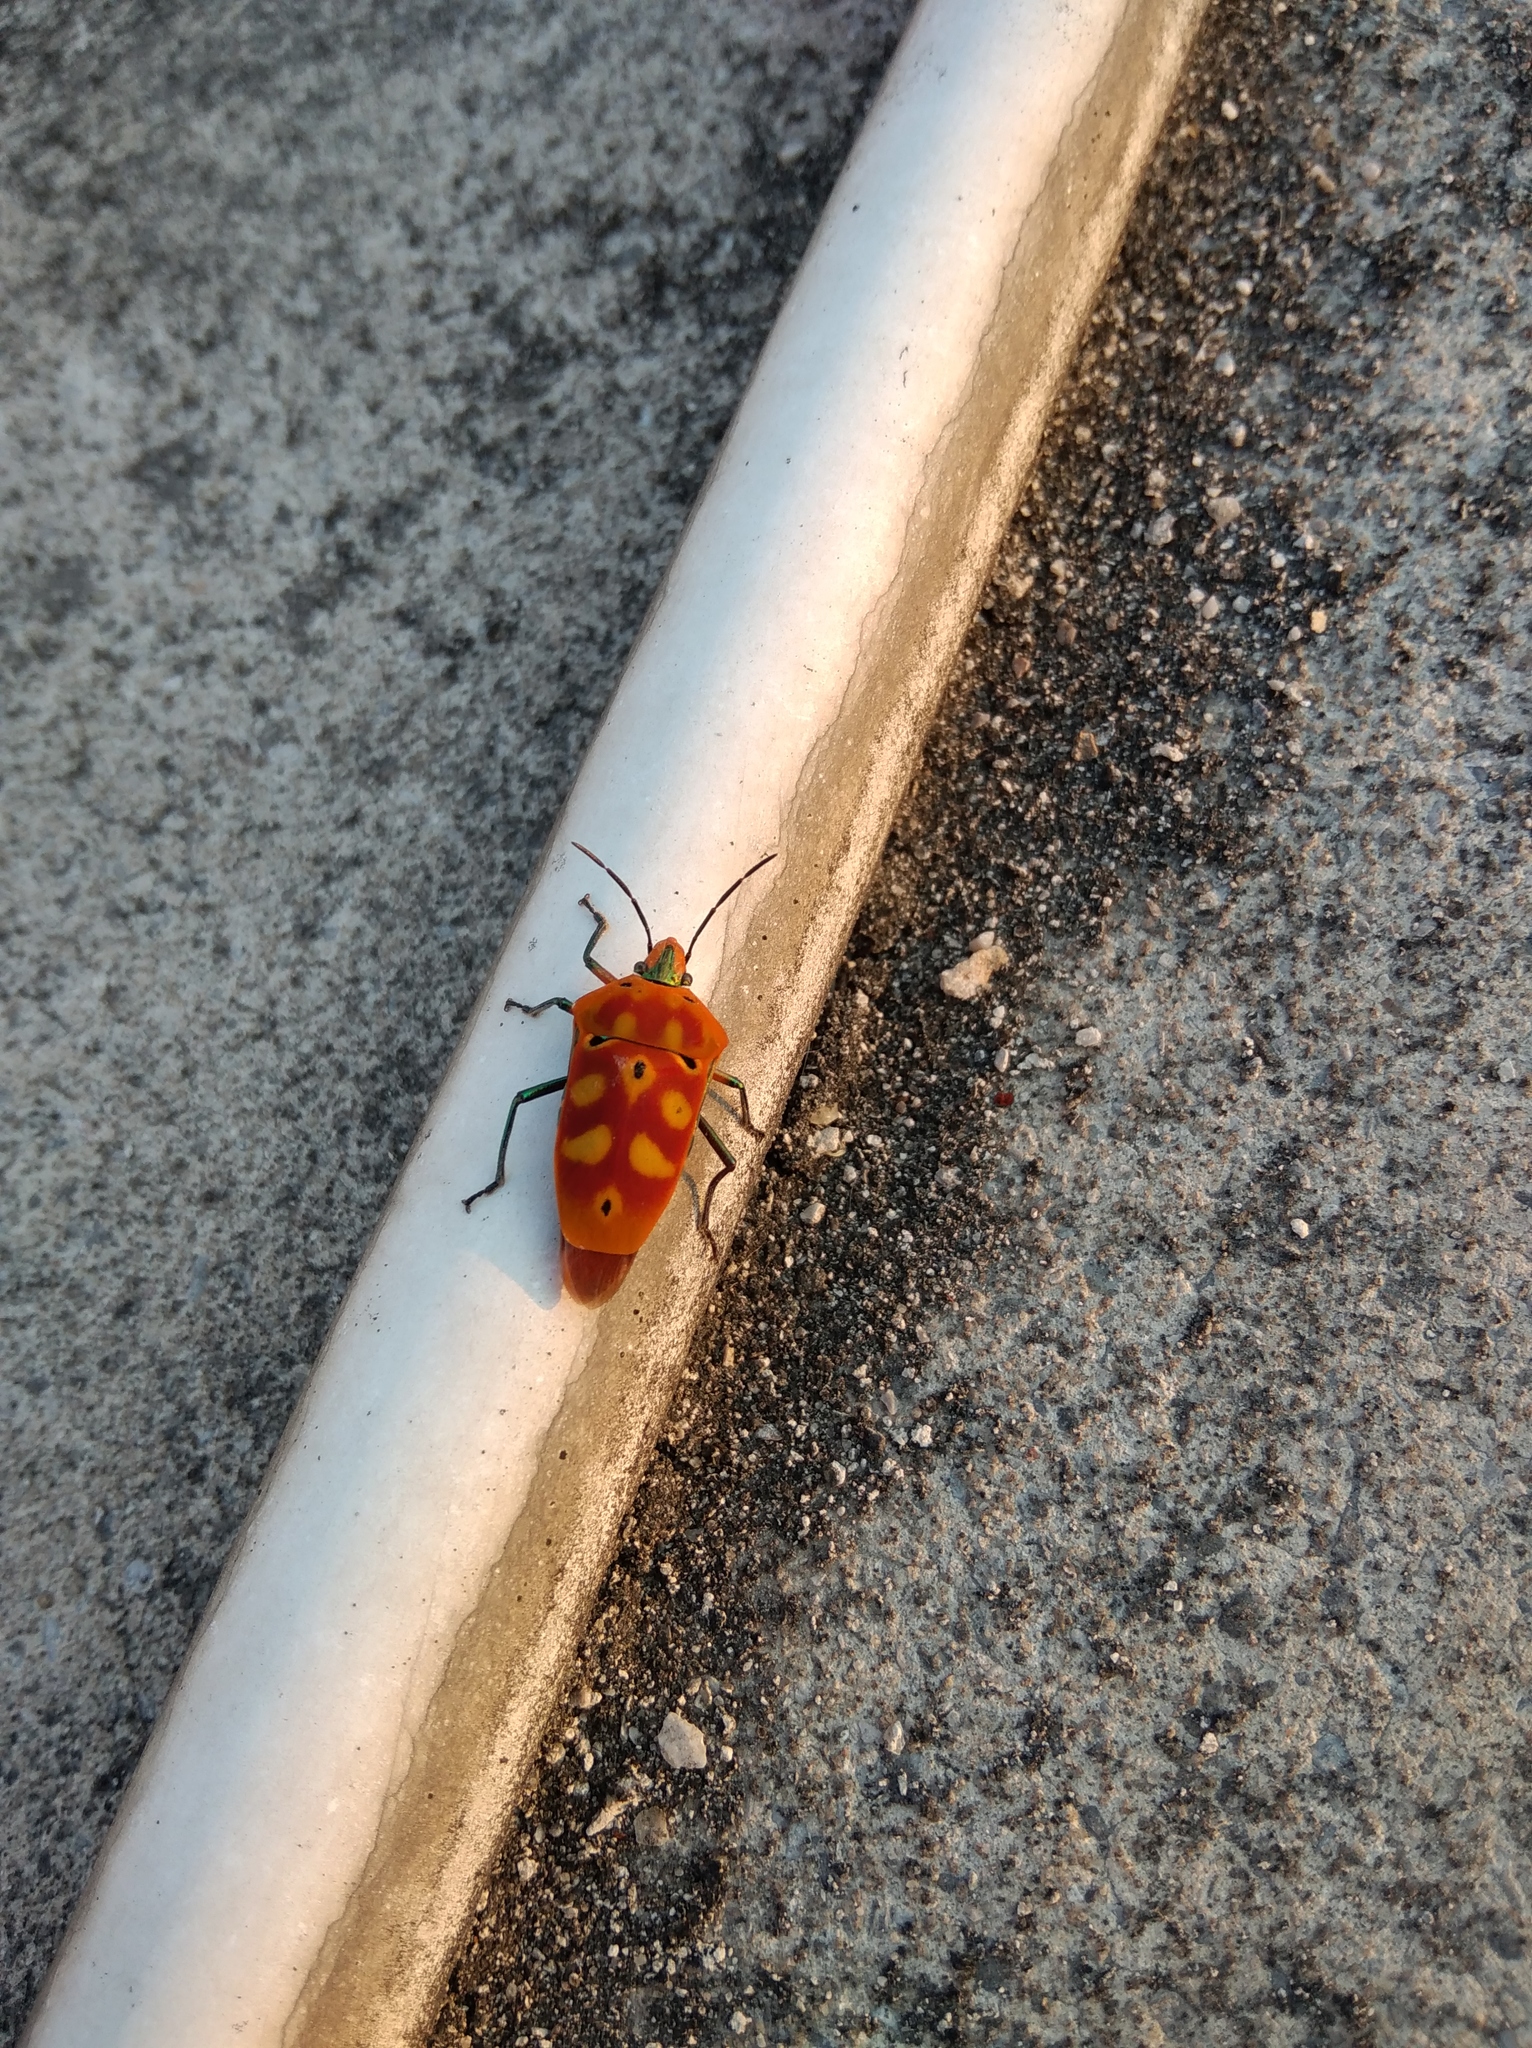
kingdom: Animalia
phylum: Arthropoda
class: Insecta
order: Hemiptera
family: Scutelleridae
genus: Cantao
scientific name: Cantao ocellatus
